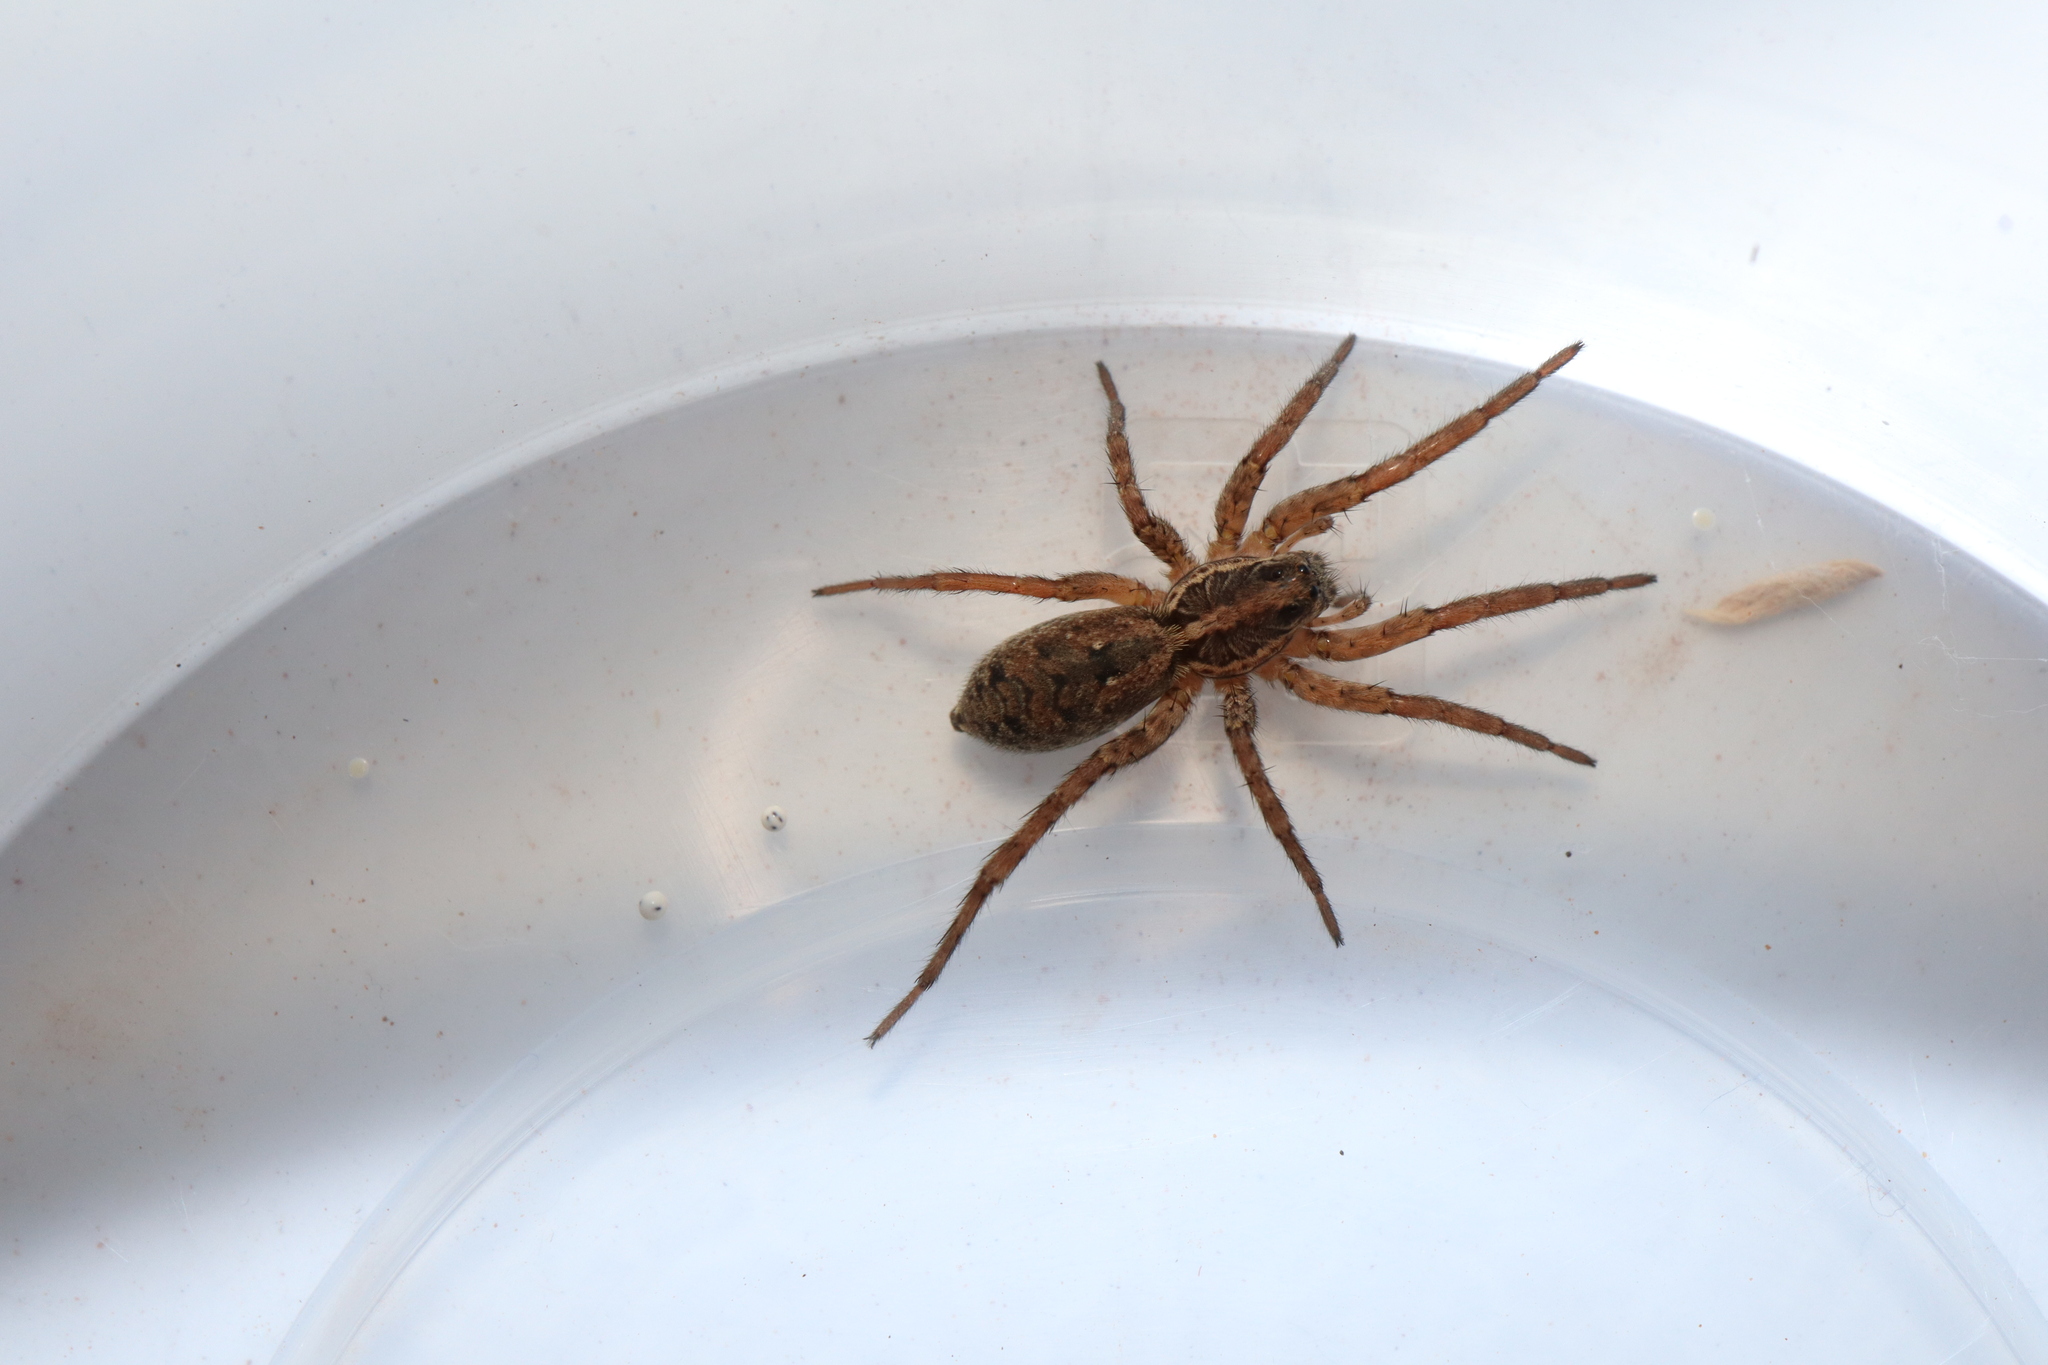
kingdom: Animalia
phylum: Arthropoda
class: Arachnida
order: Araneae
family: Lycosidae
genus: Hogna
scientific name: Hogna crispipes
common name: Wolf spider
